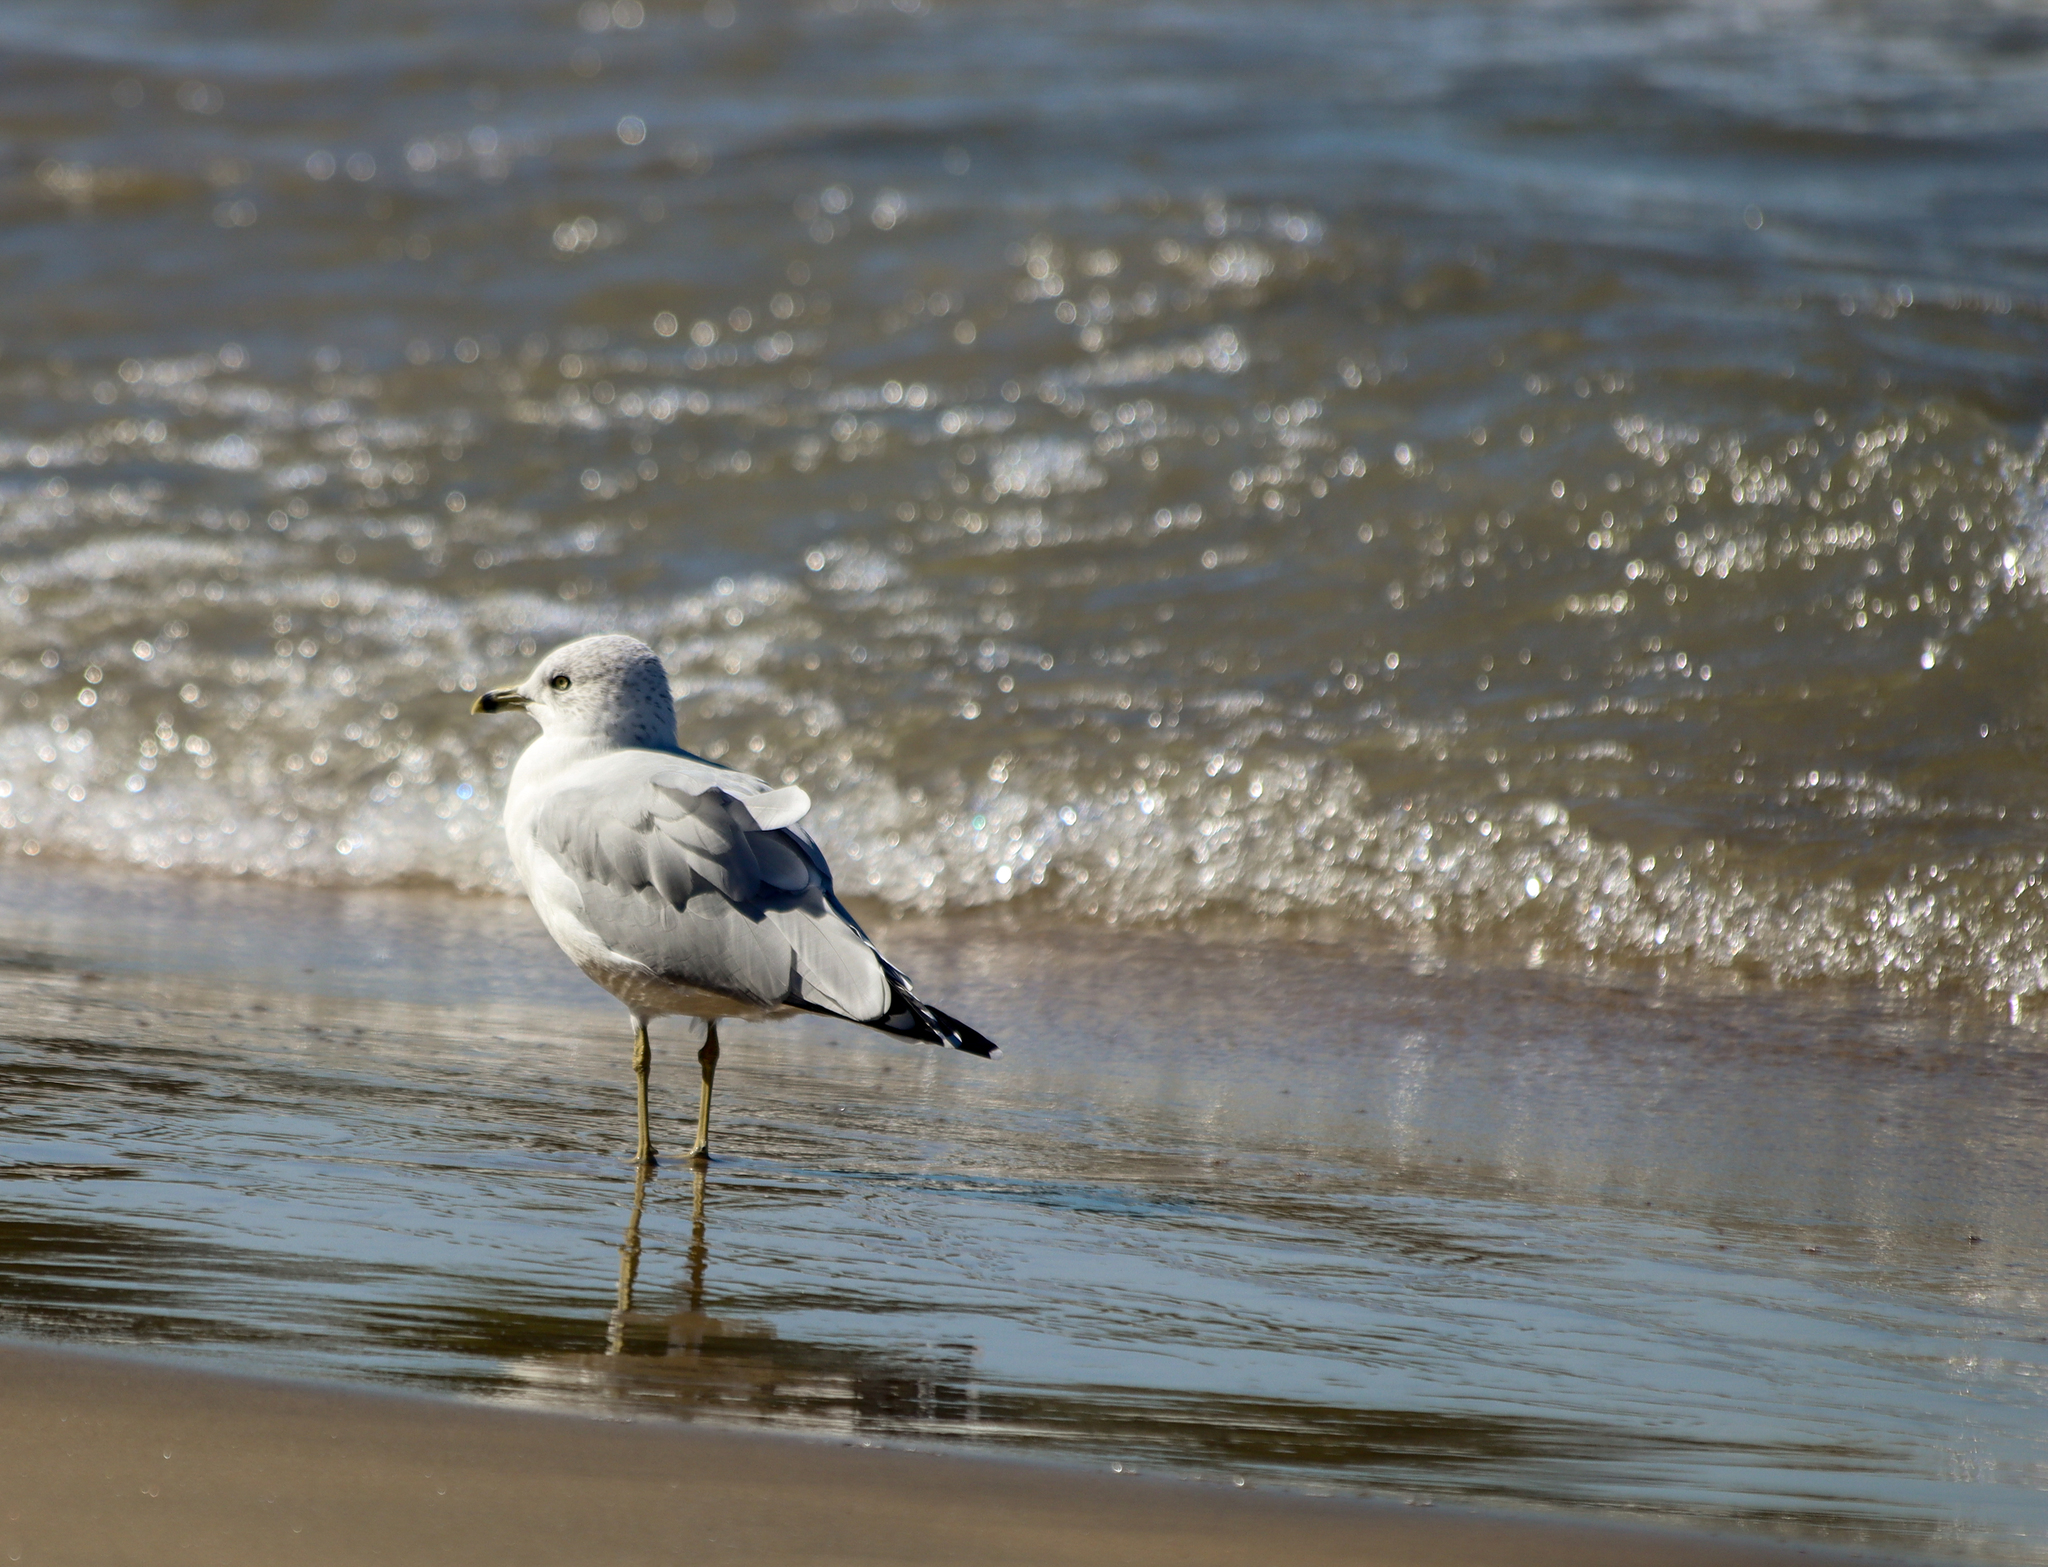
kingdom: Animalia
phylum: Chordata
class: Aves
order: Charadriiformes
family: Laridae
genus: Larus
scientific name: Larus delawarensis
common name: Ring-billed gull
